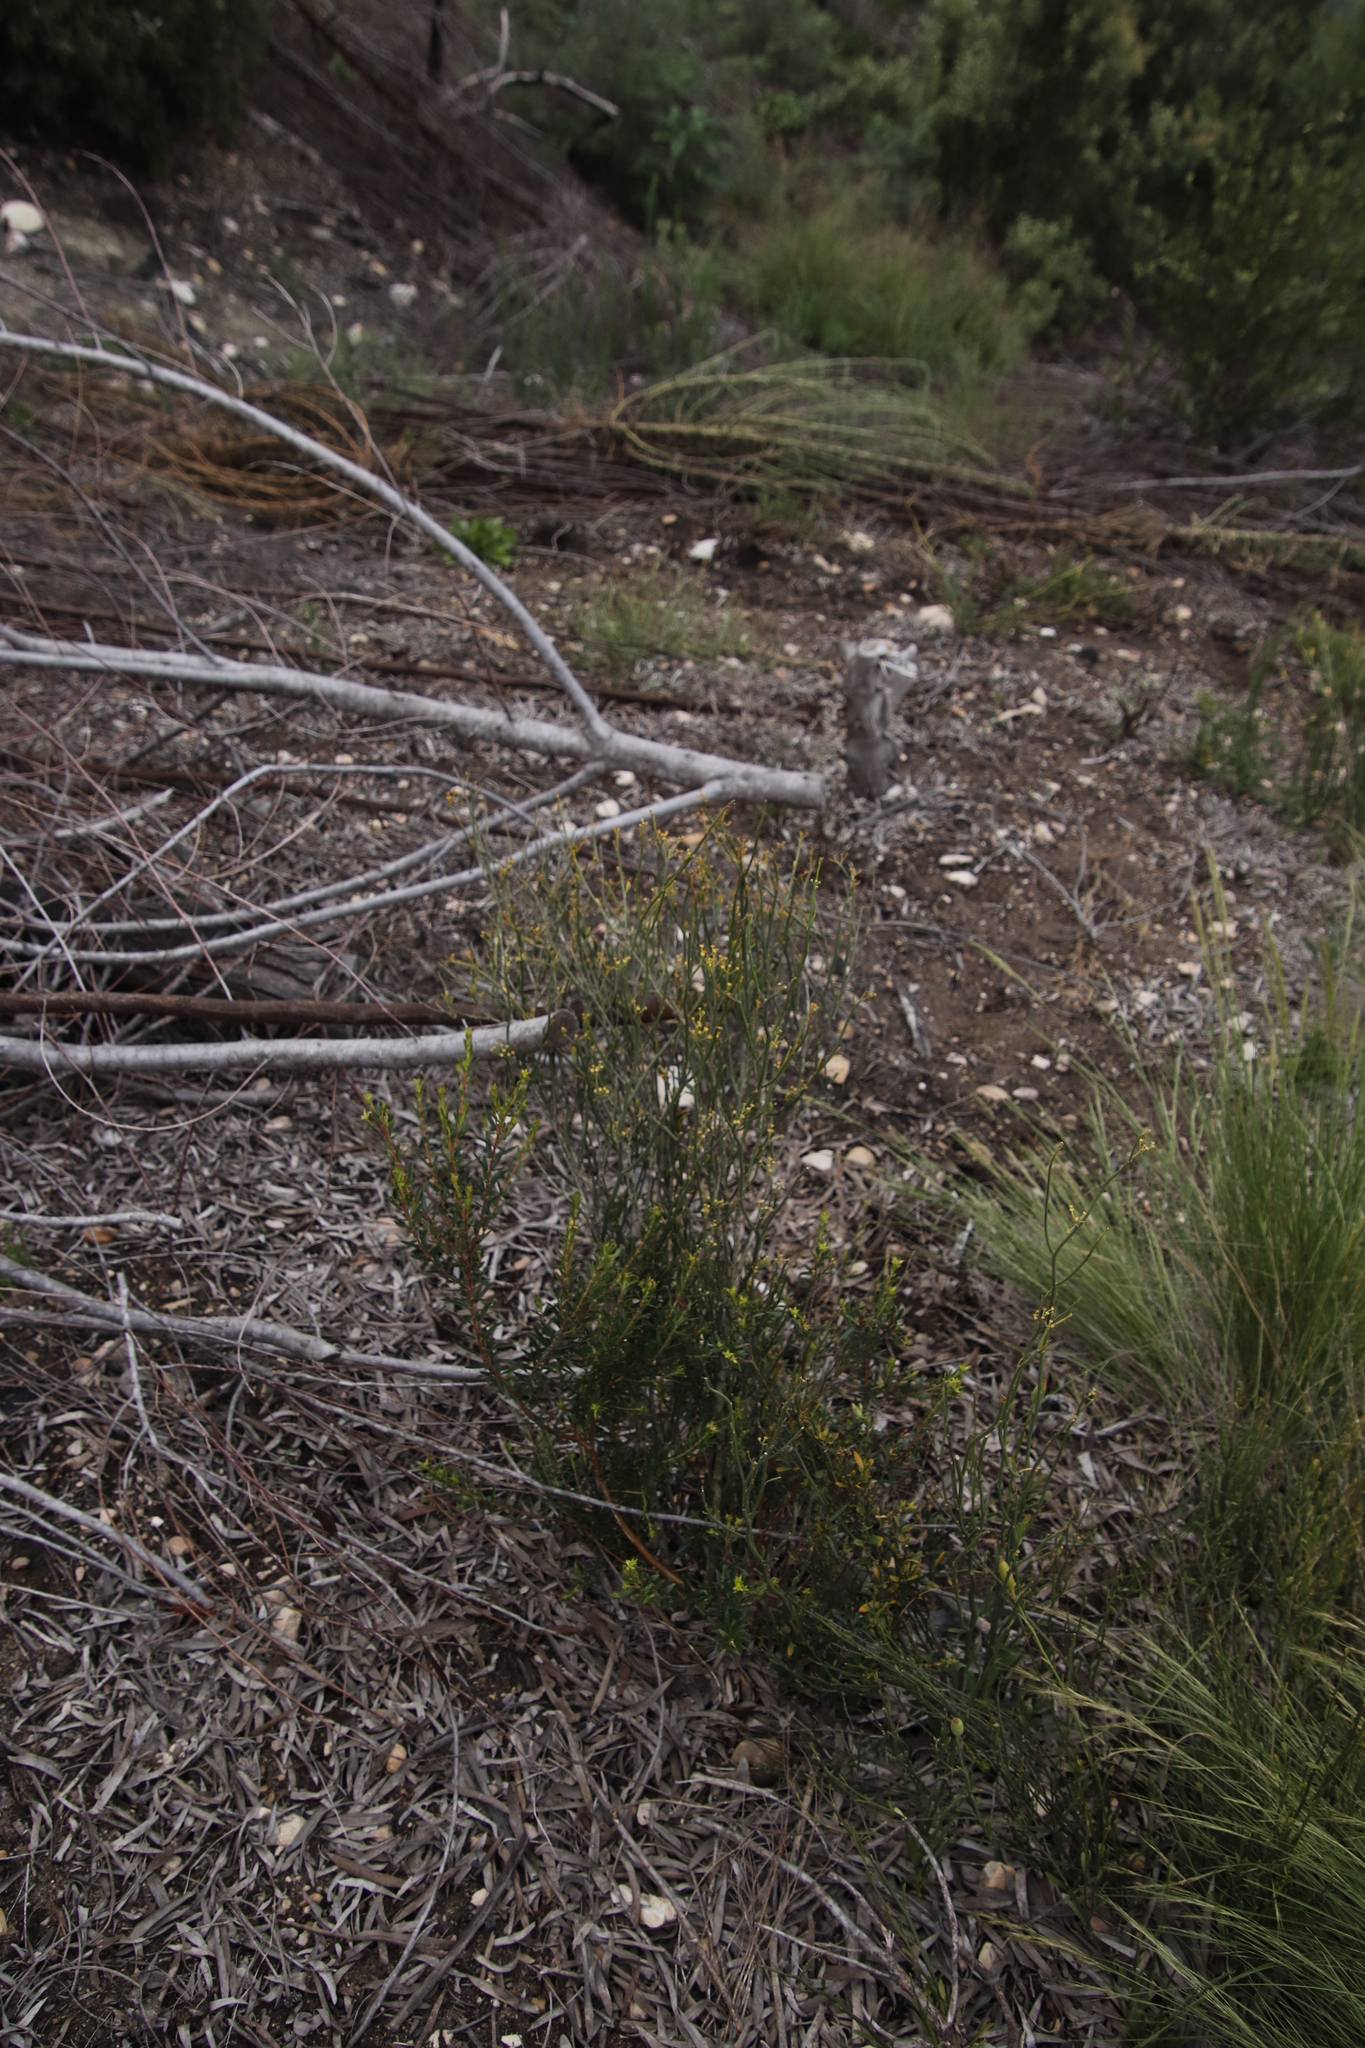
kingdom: Plantae
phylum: Tracheophyta
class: Magnoliopsida
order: Solanales
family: Montiniaceae
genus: Montinia
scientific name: Montinia caryophyllacea
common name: Wild clove-bush
